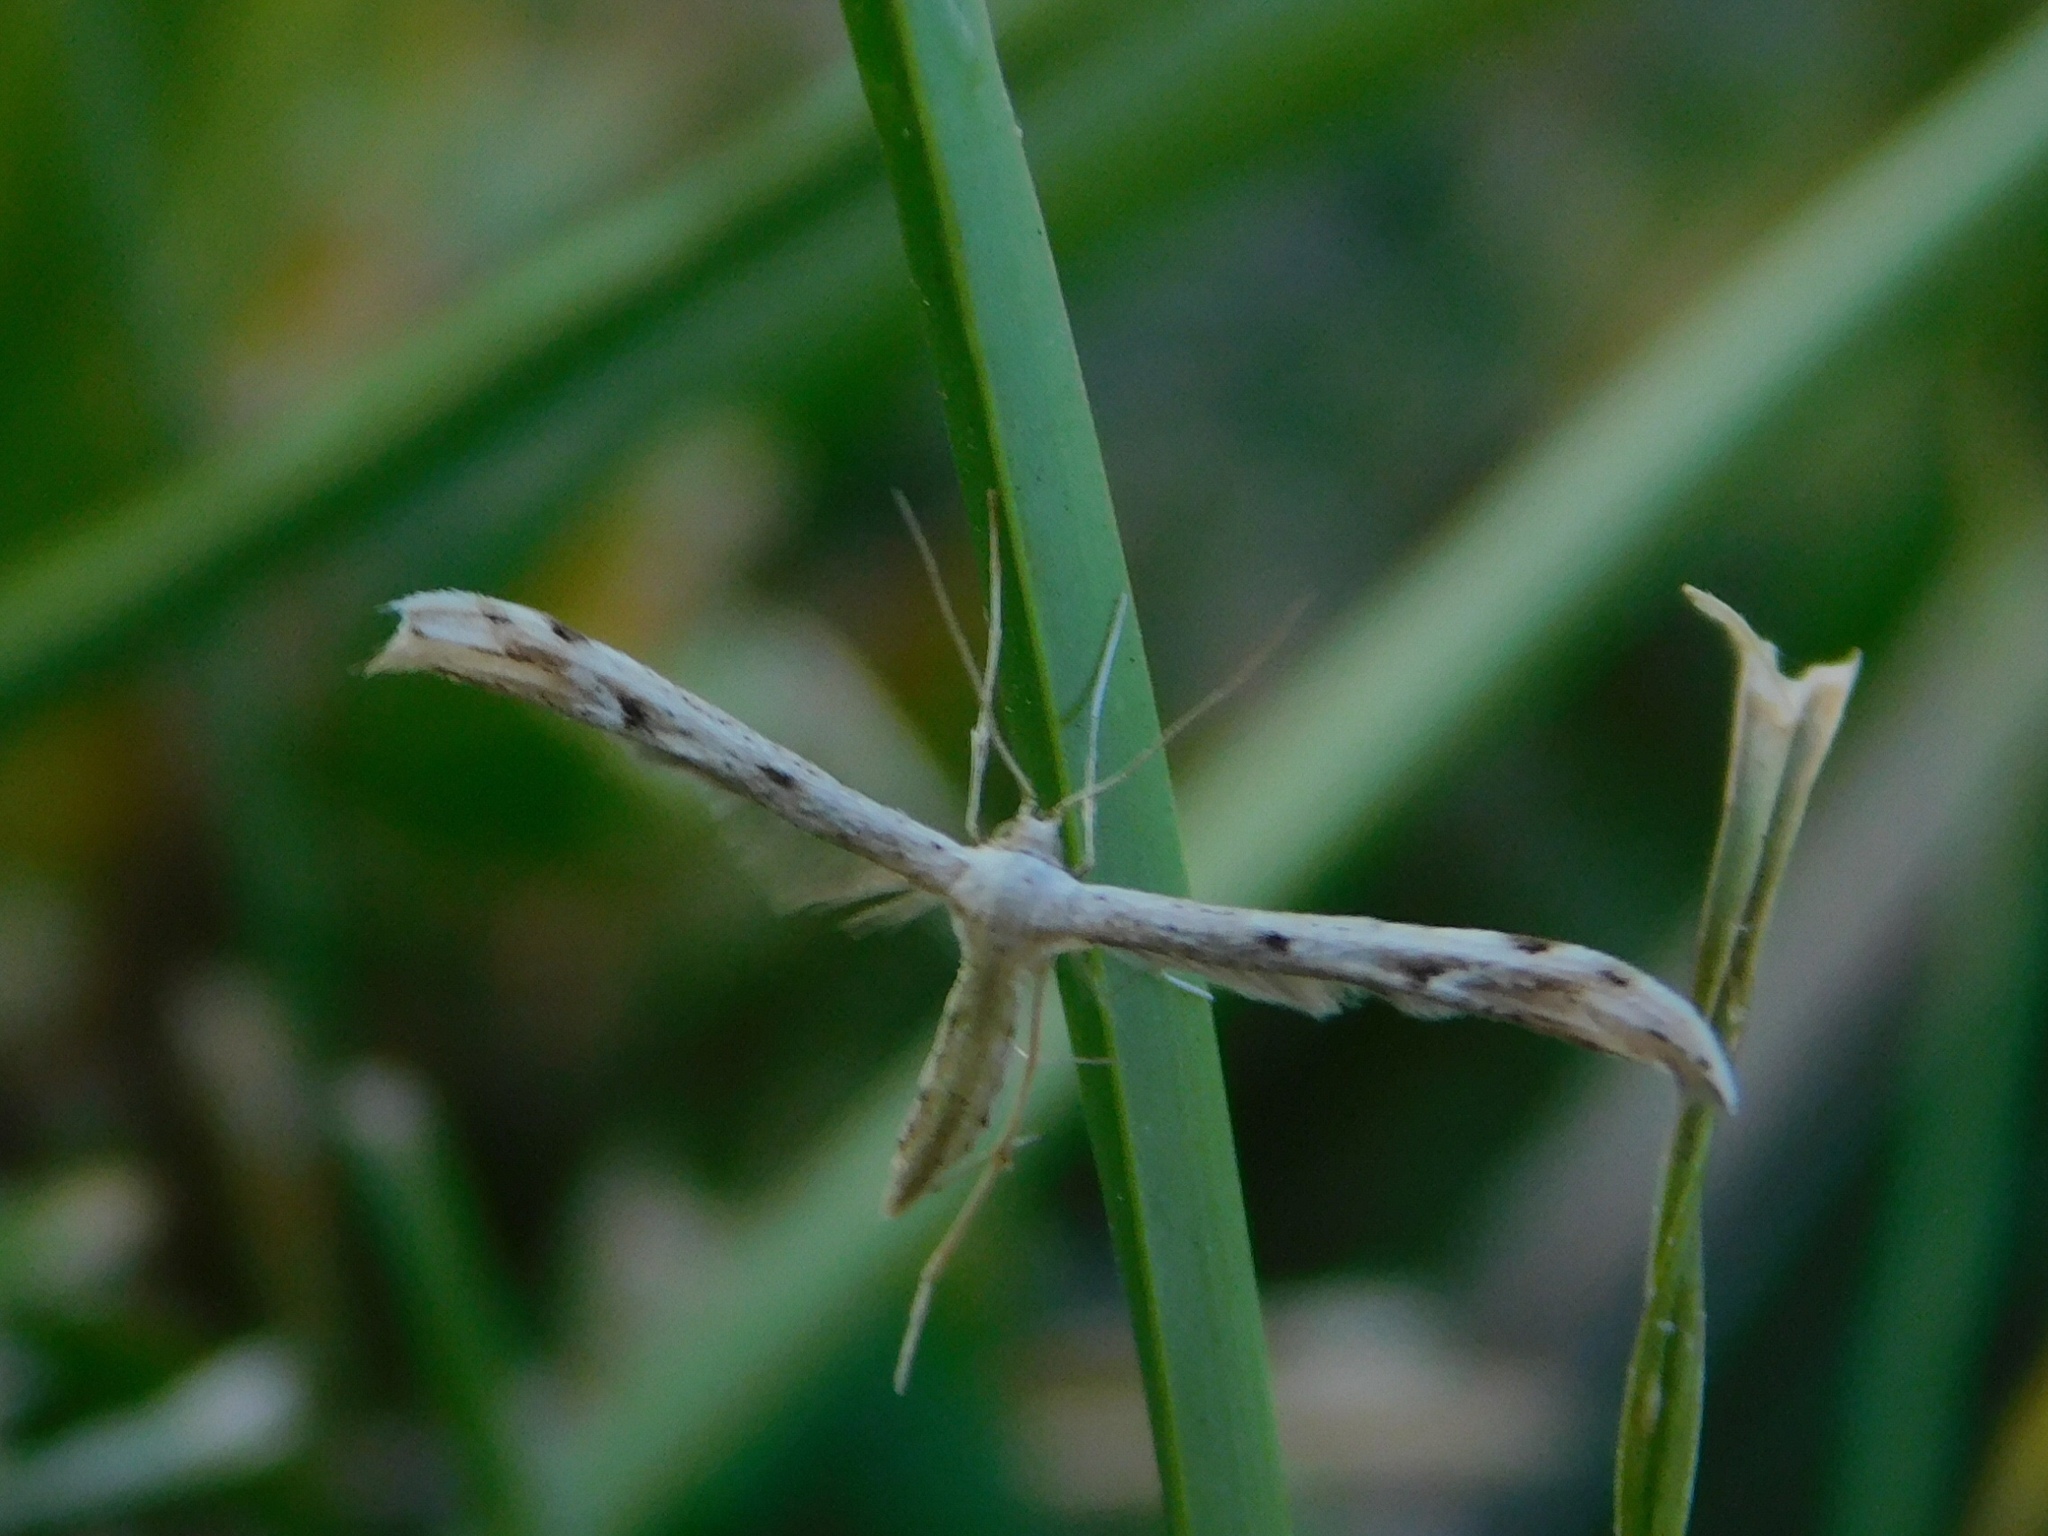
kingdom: Animalia
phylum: Arthropoda
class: Insecta
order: Lepidoptera
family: Pterophoridae
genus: Pselnophorus
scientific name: Pselnophorus belfragei
